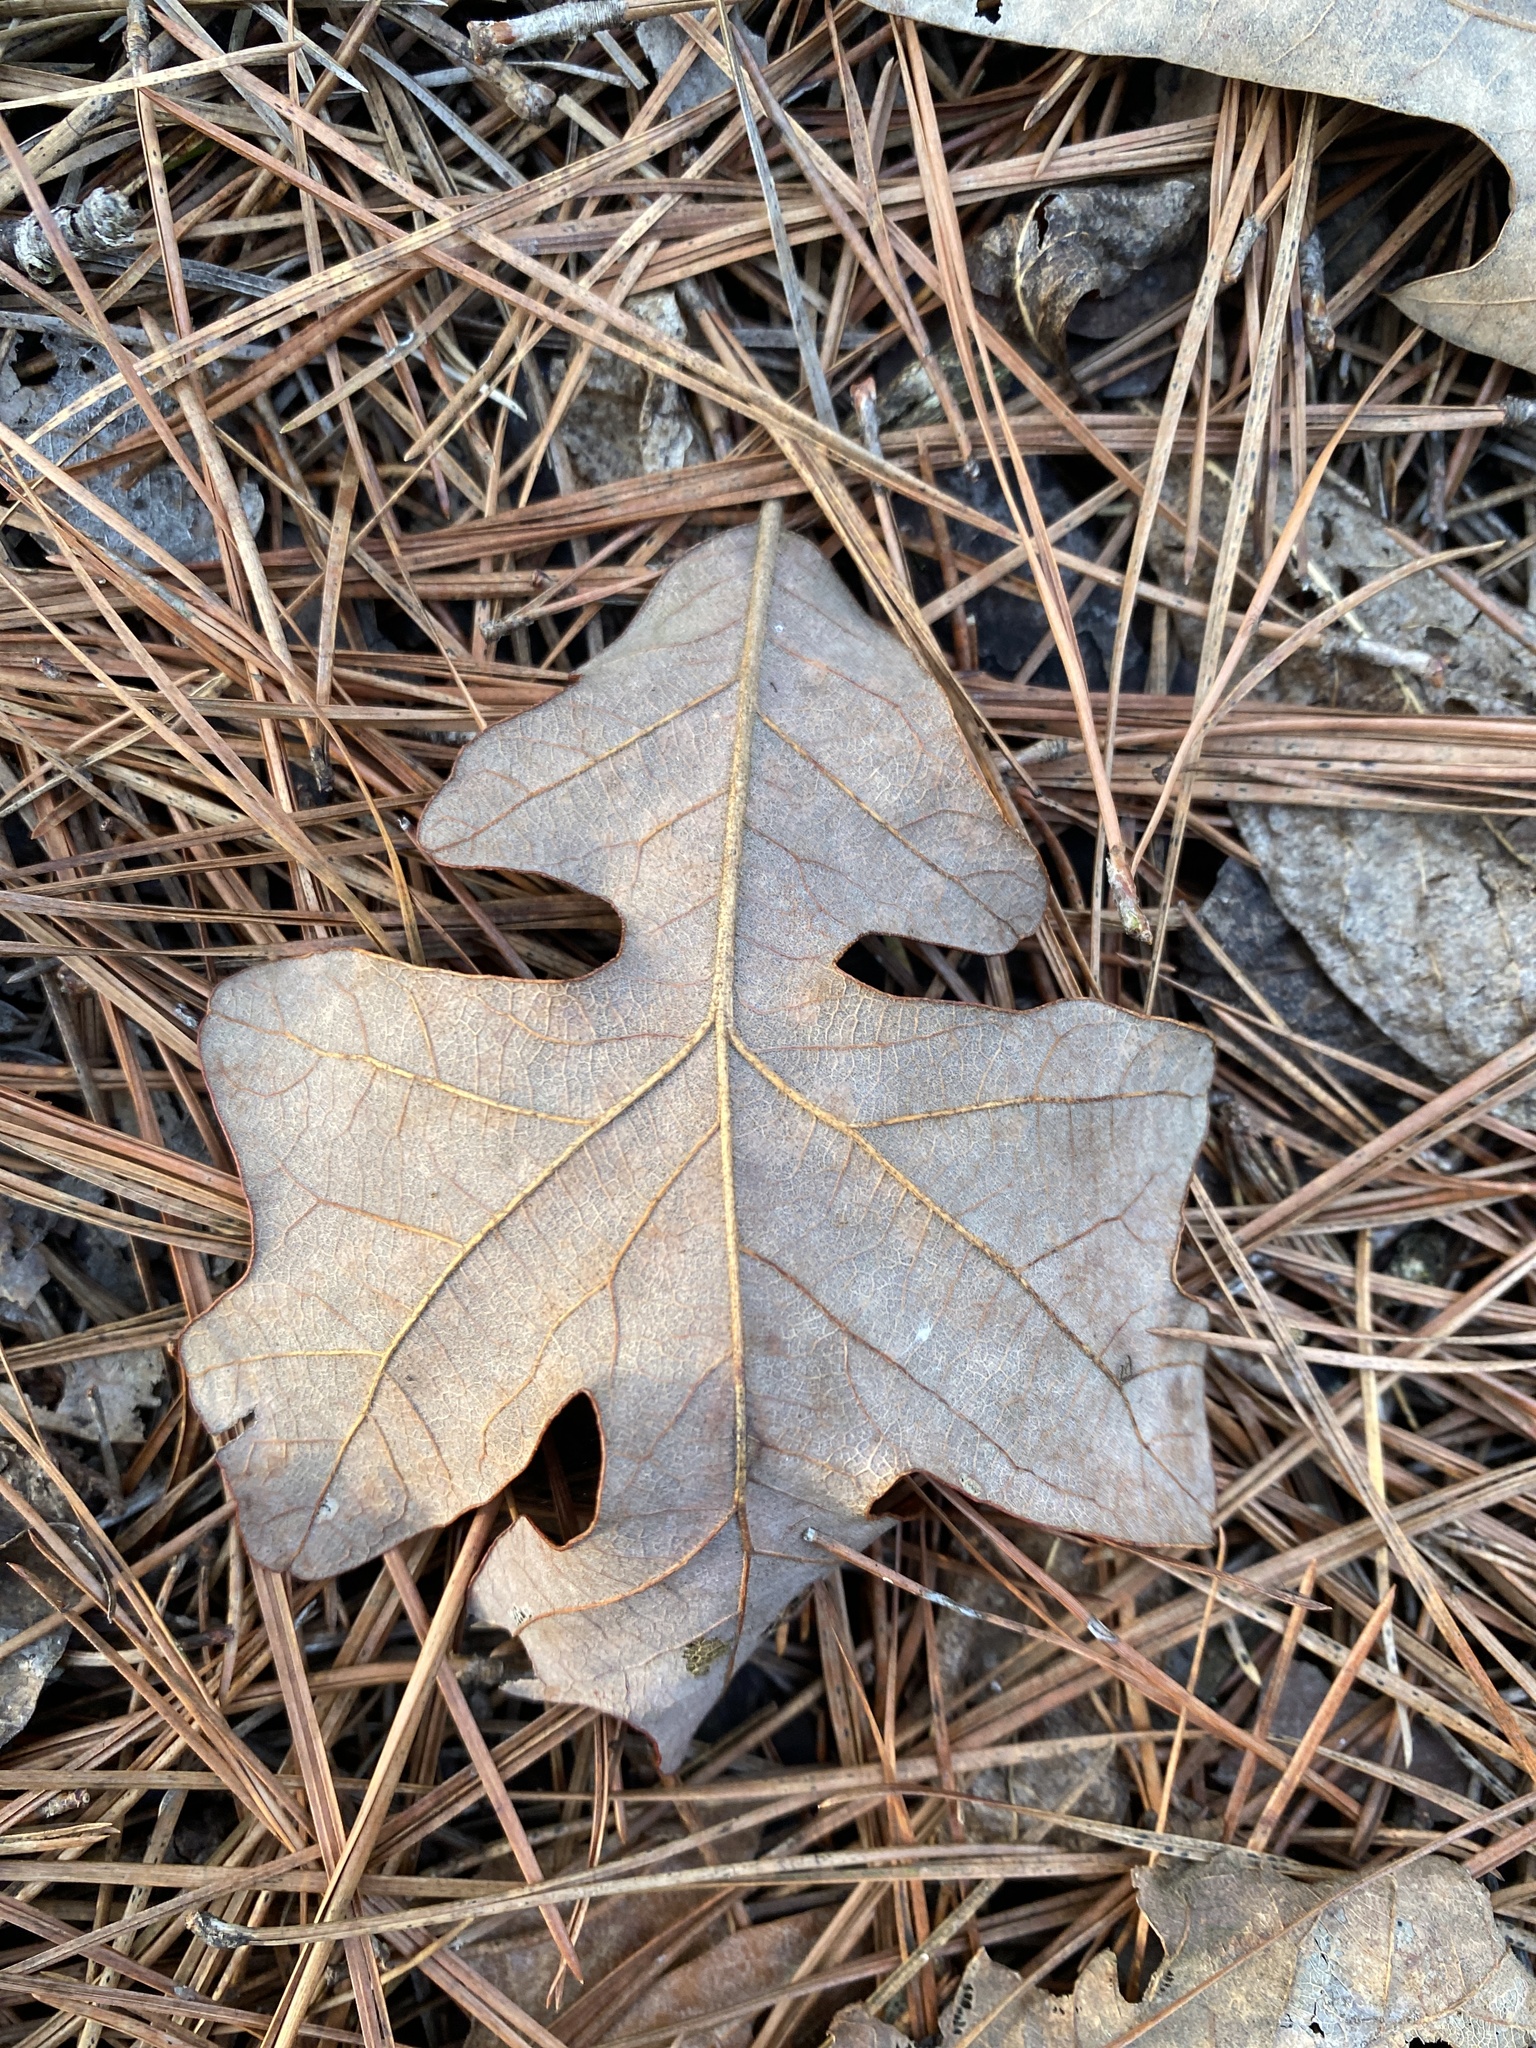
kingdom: Plantae
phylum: Tracheophyta
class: Magnoliopsida
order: Fagales
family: Fagaceae
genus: Quercus
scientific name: Quercus stellata
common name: Post oak
